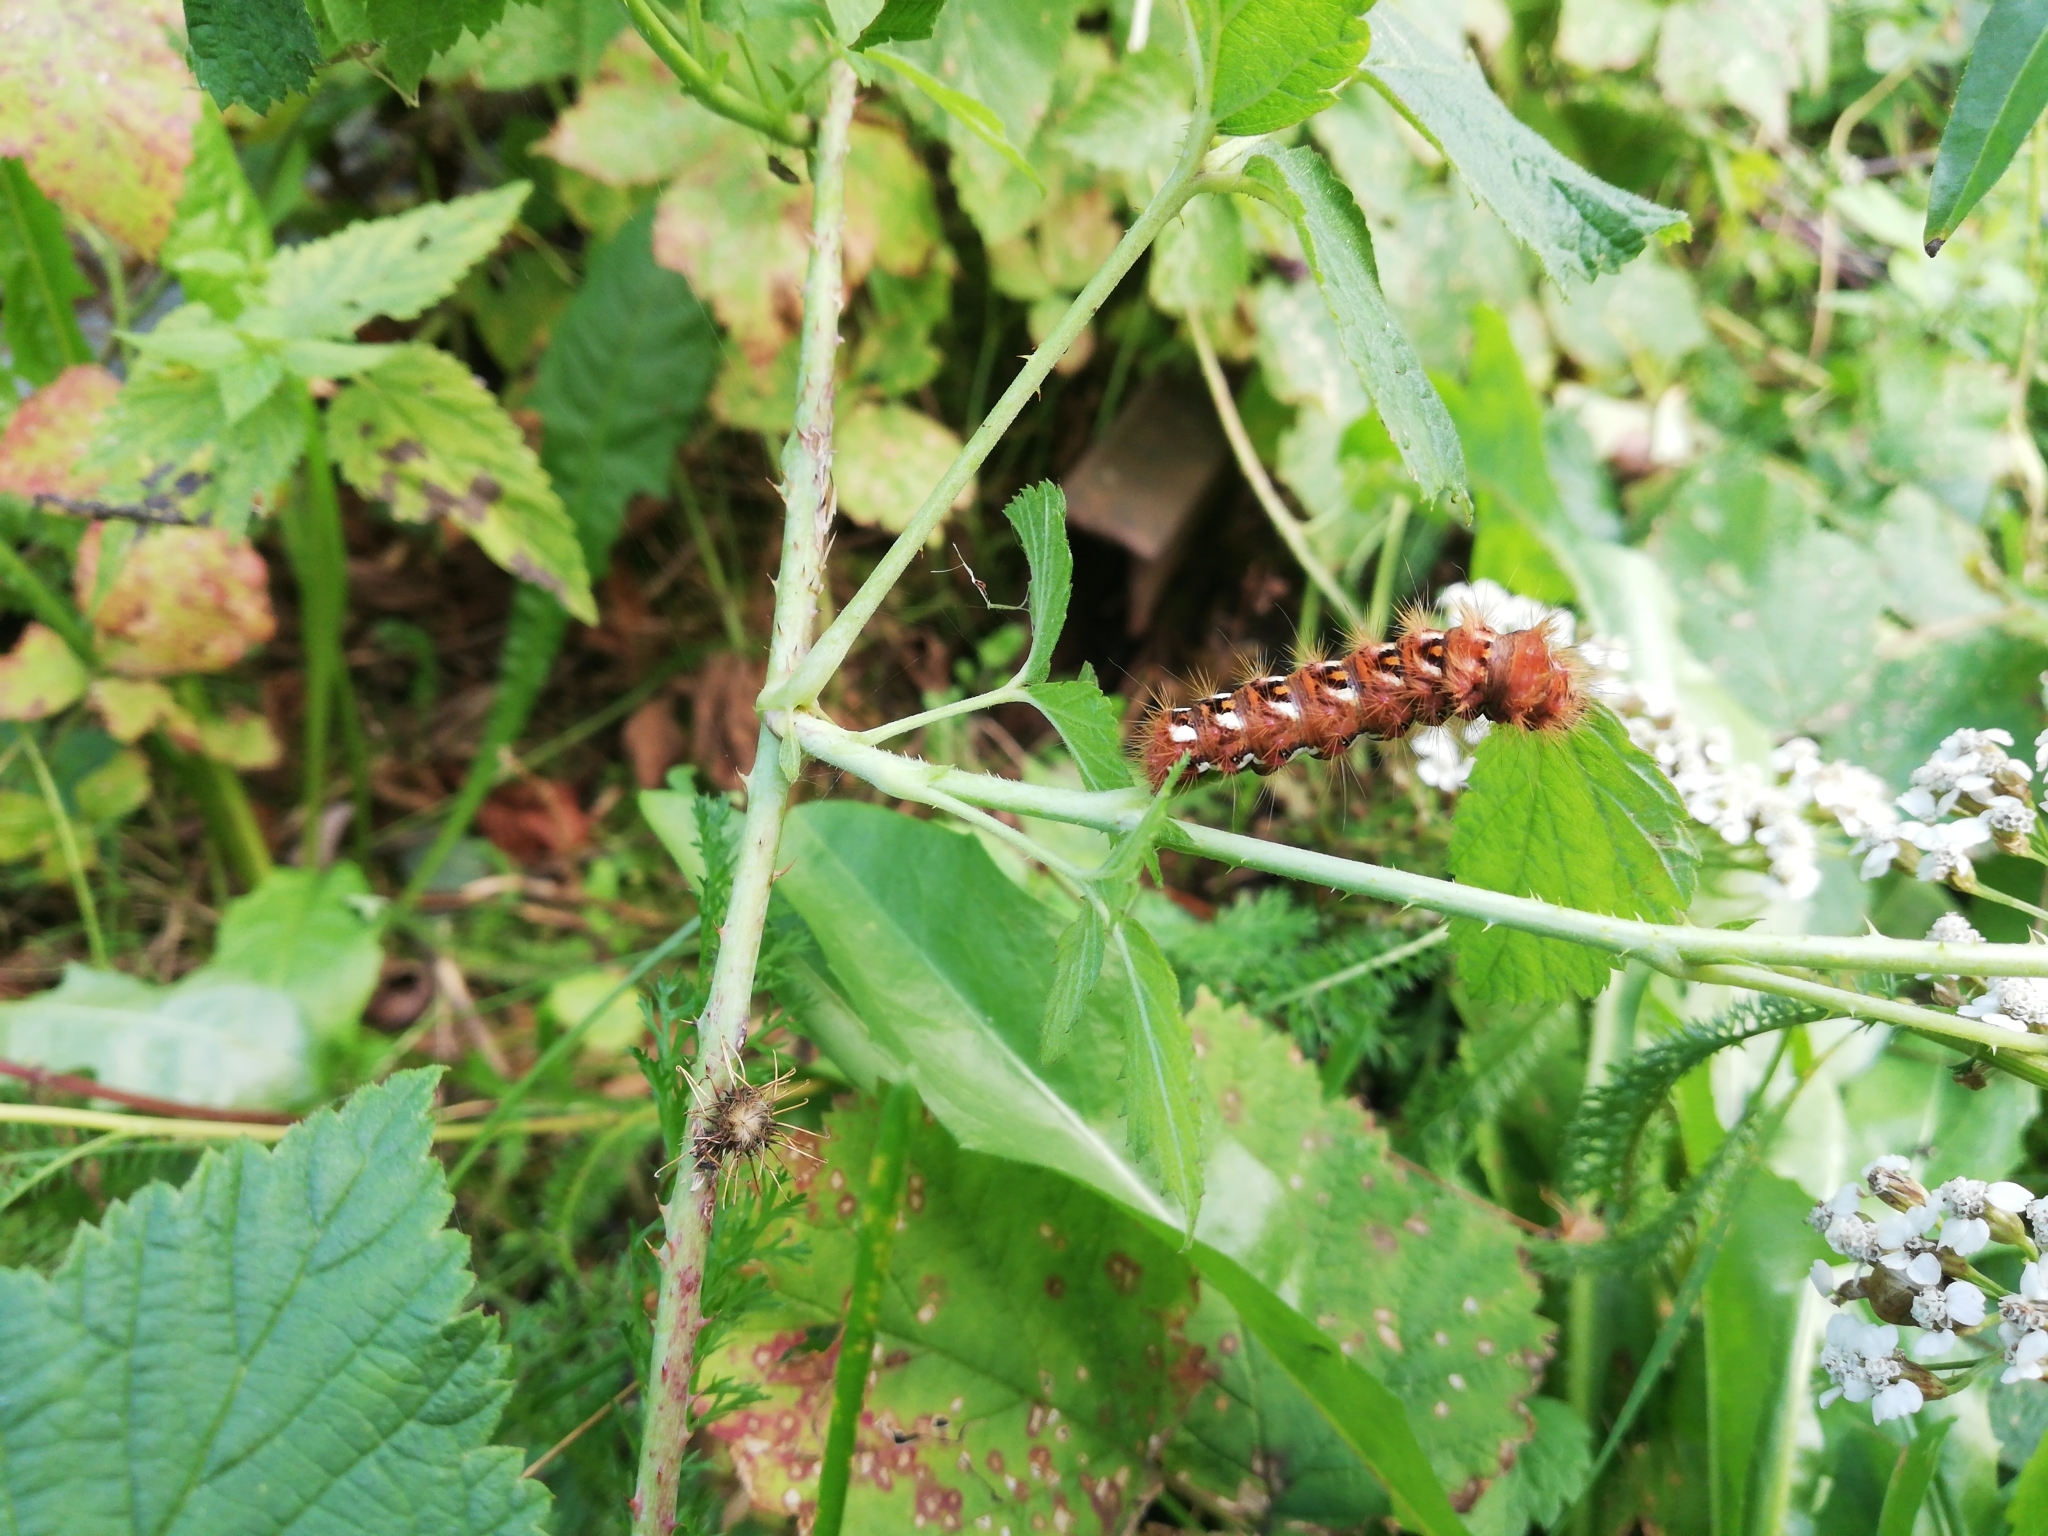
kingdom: Animalia
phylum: Arthropoda
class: Insecta
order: Lepidoptera
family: Noctuidae
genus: Acronicta
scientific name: Acronicta rumicis
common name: Knot grass
